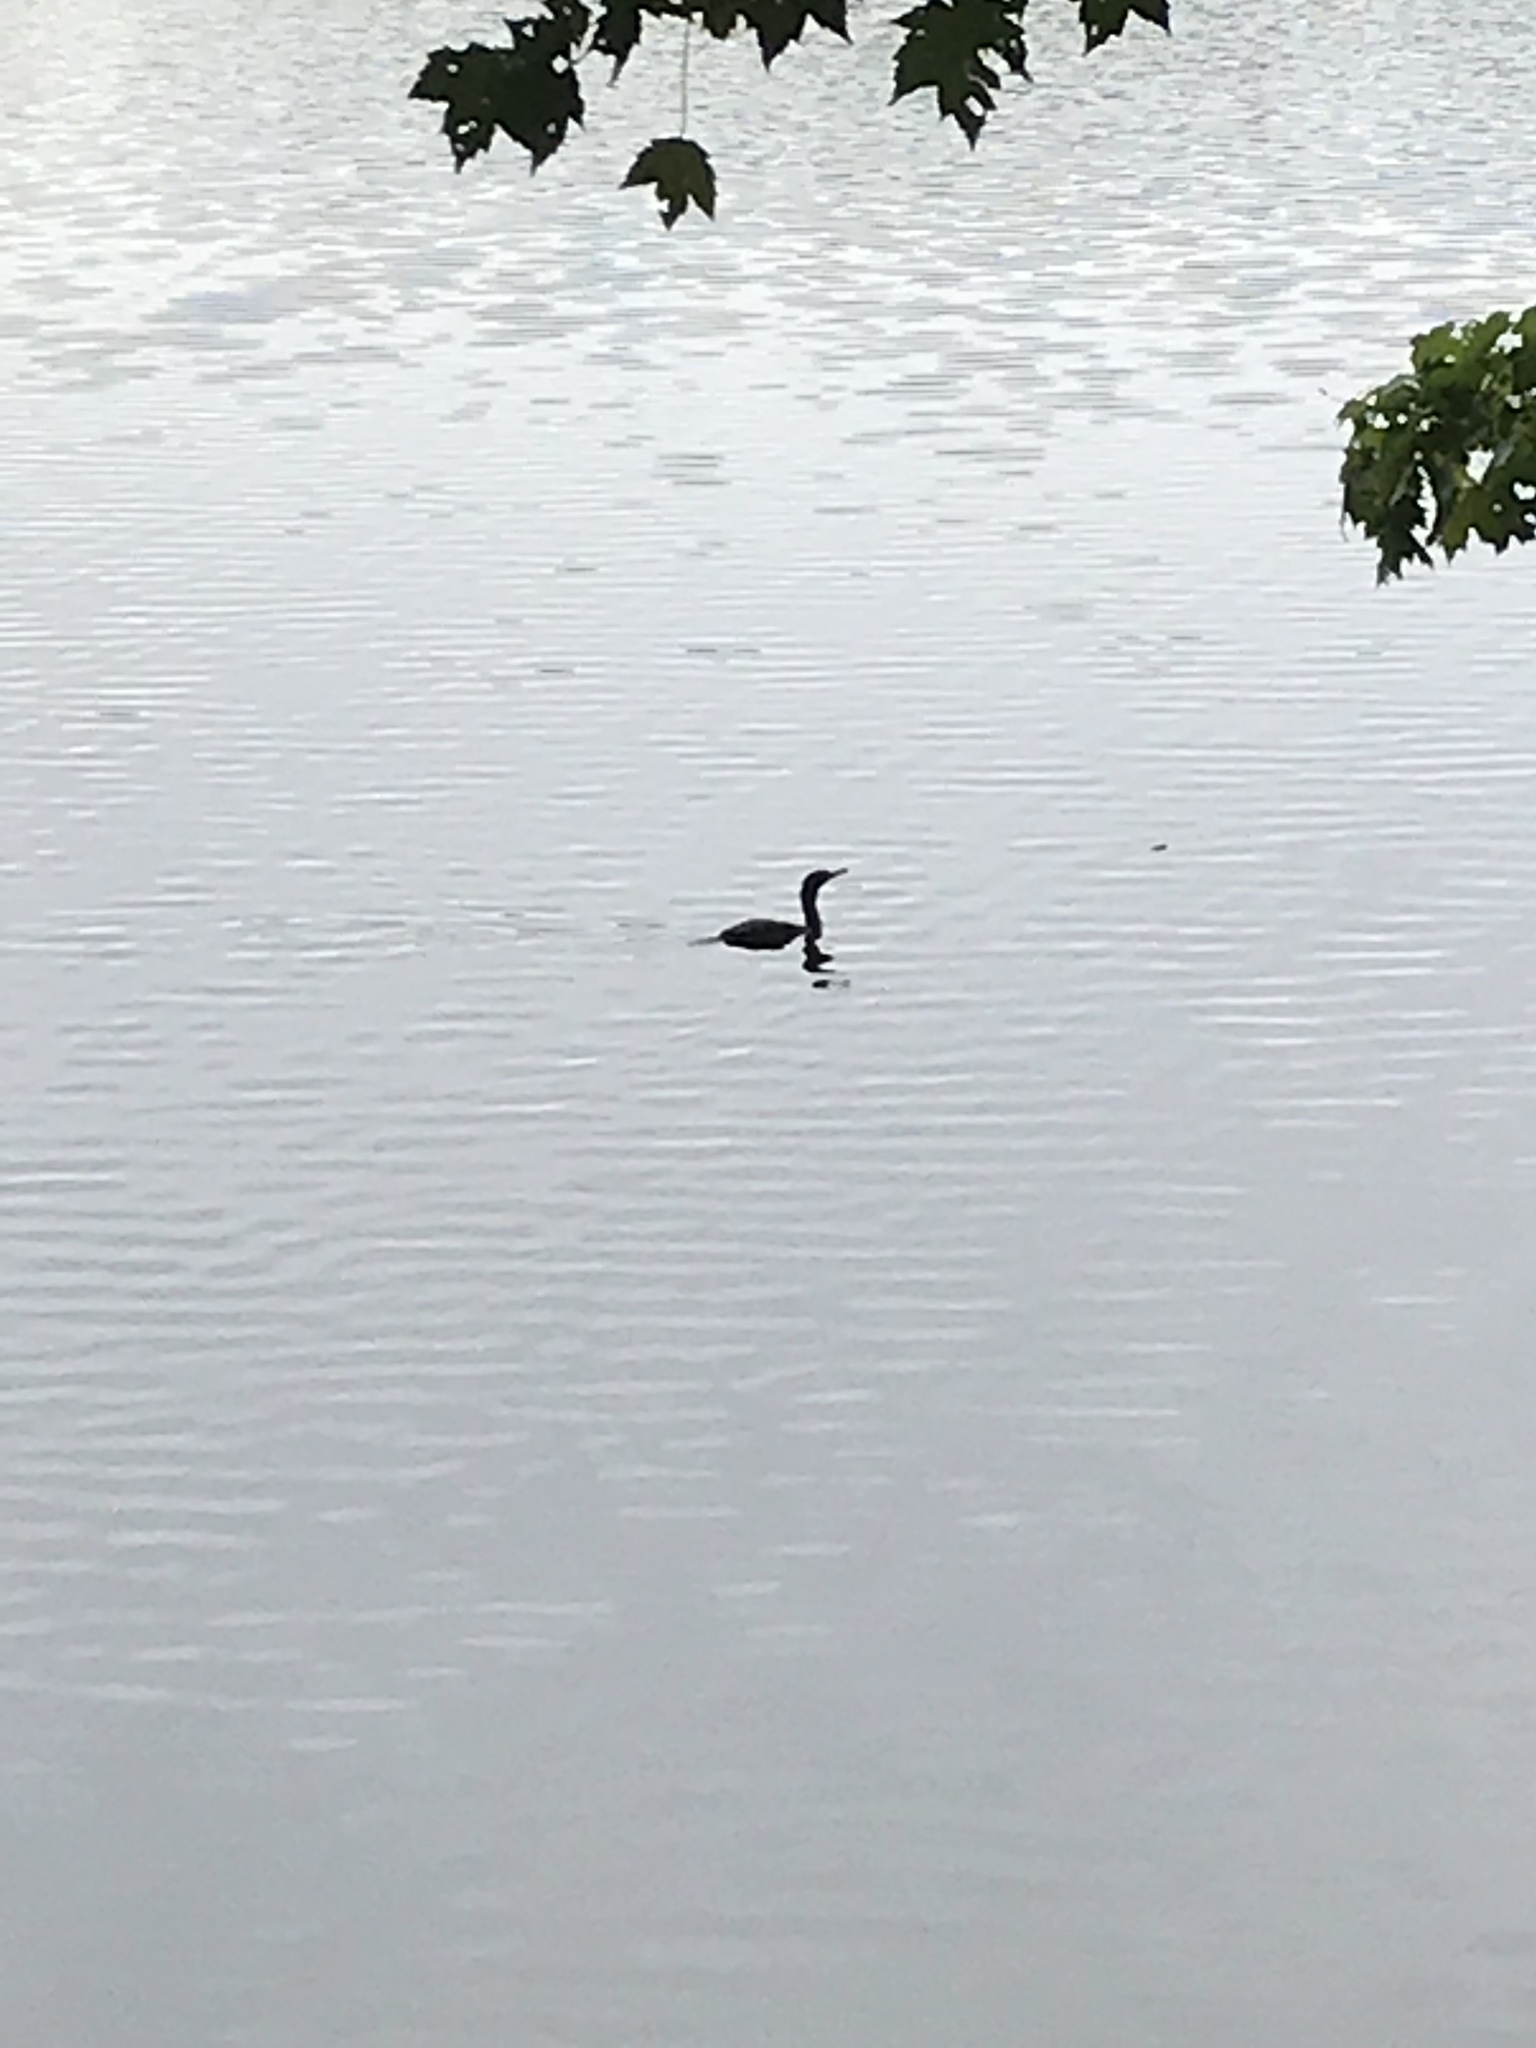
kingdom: Animalia
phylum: Chordata
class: Aves
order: Suliformes
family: Phalacrocoracidae
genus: Phalacrocorax
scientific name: Phalacrocorax auritus
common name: Double-crested cormorant
